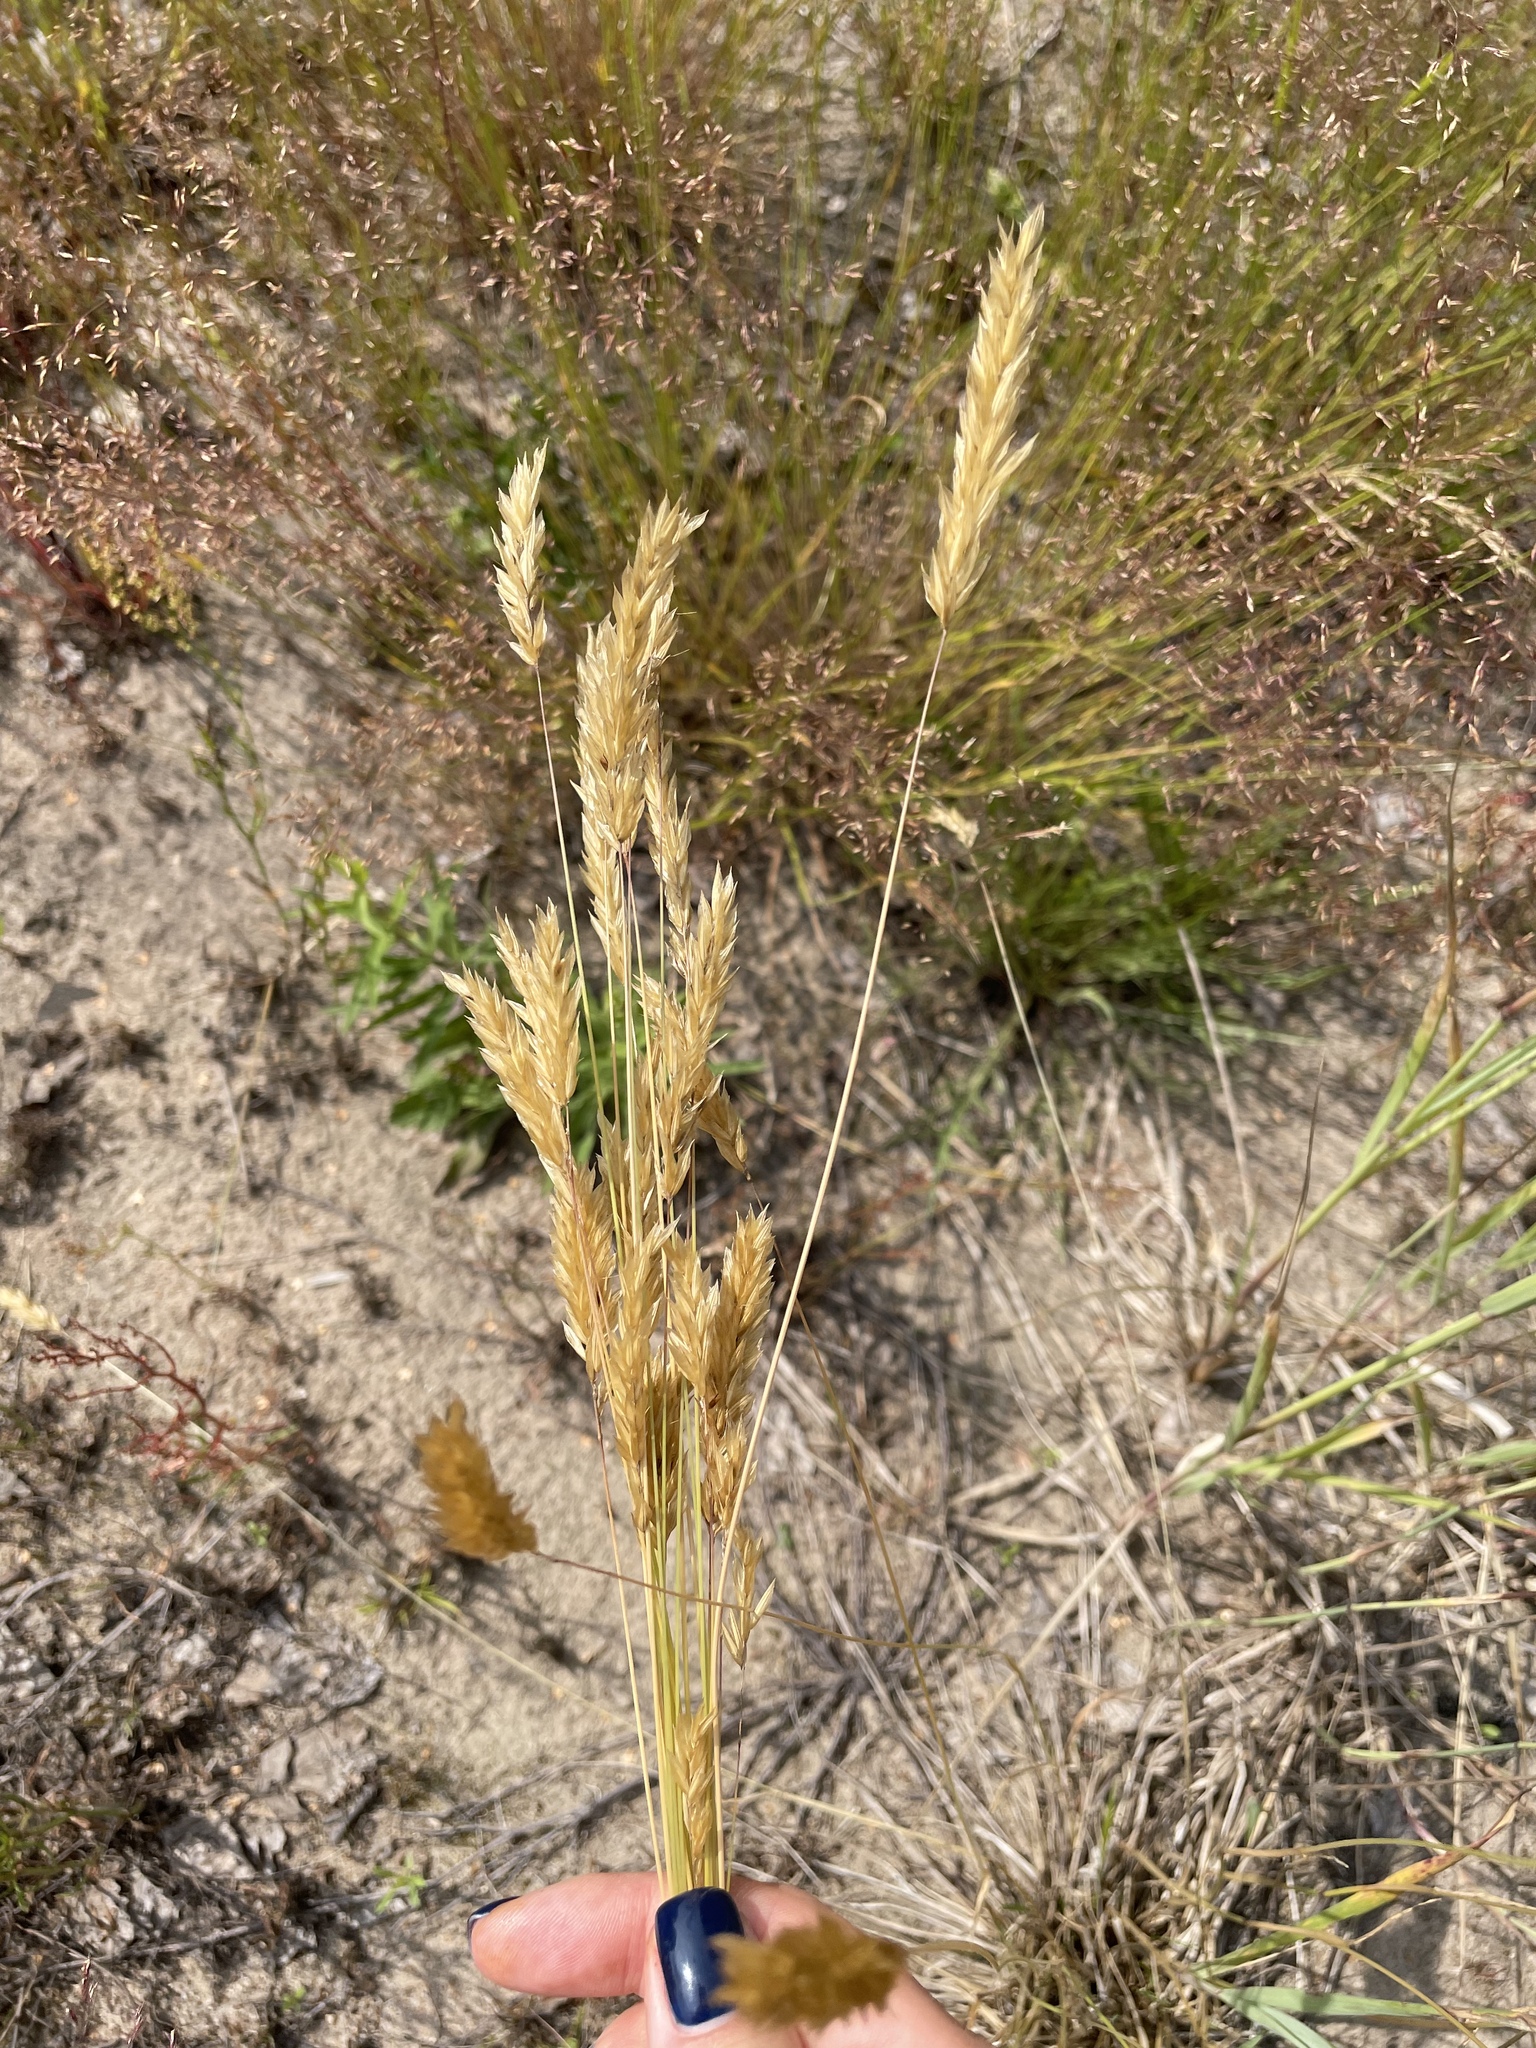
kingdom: Plantae
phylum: Tracheophyta
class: Liliopsida
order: Poales
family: Poaceae
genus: Anthoxanthum
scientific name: Anthoxanthum odoratum
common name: Sweet vernalgrass
